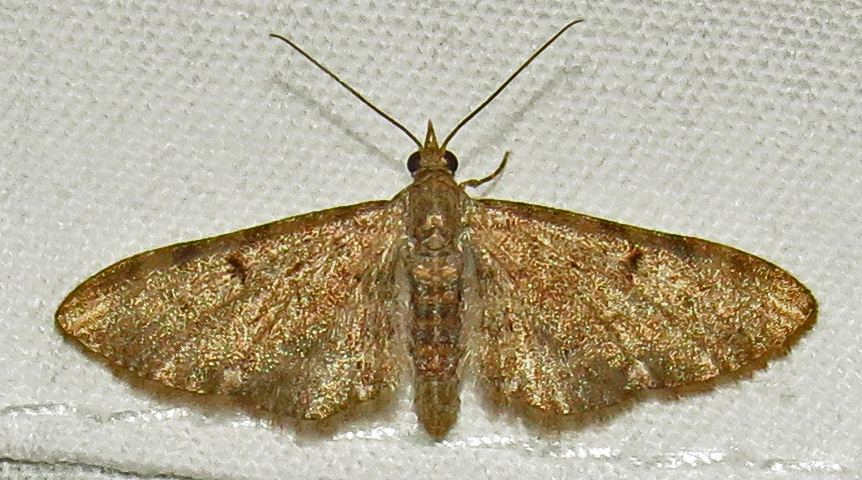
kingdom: Animalia
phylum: Arthropoda
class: Insecta
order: Lepidoptera
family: Geometridae
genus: Eupithecia
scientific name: Eupithecia miserulata
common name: Common eupithecia
